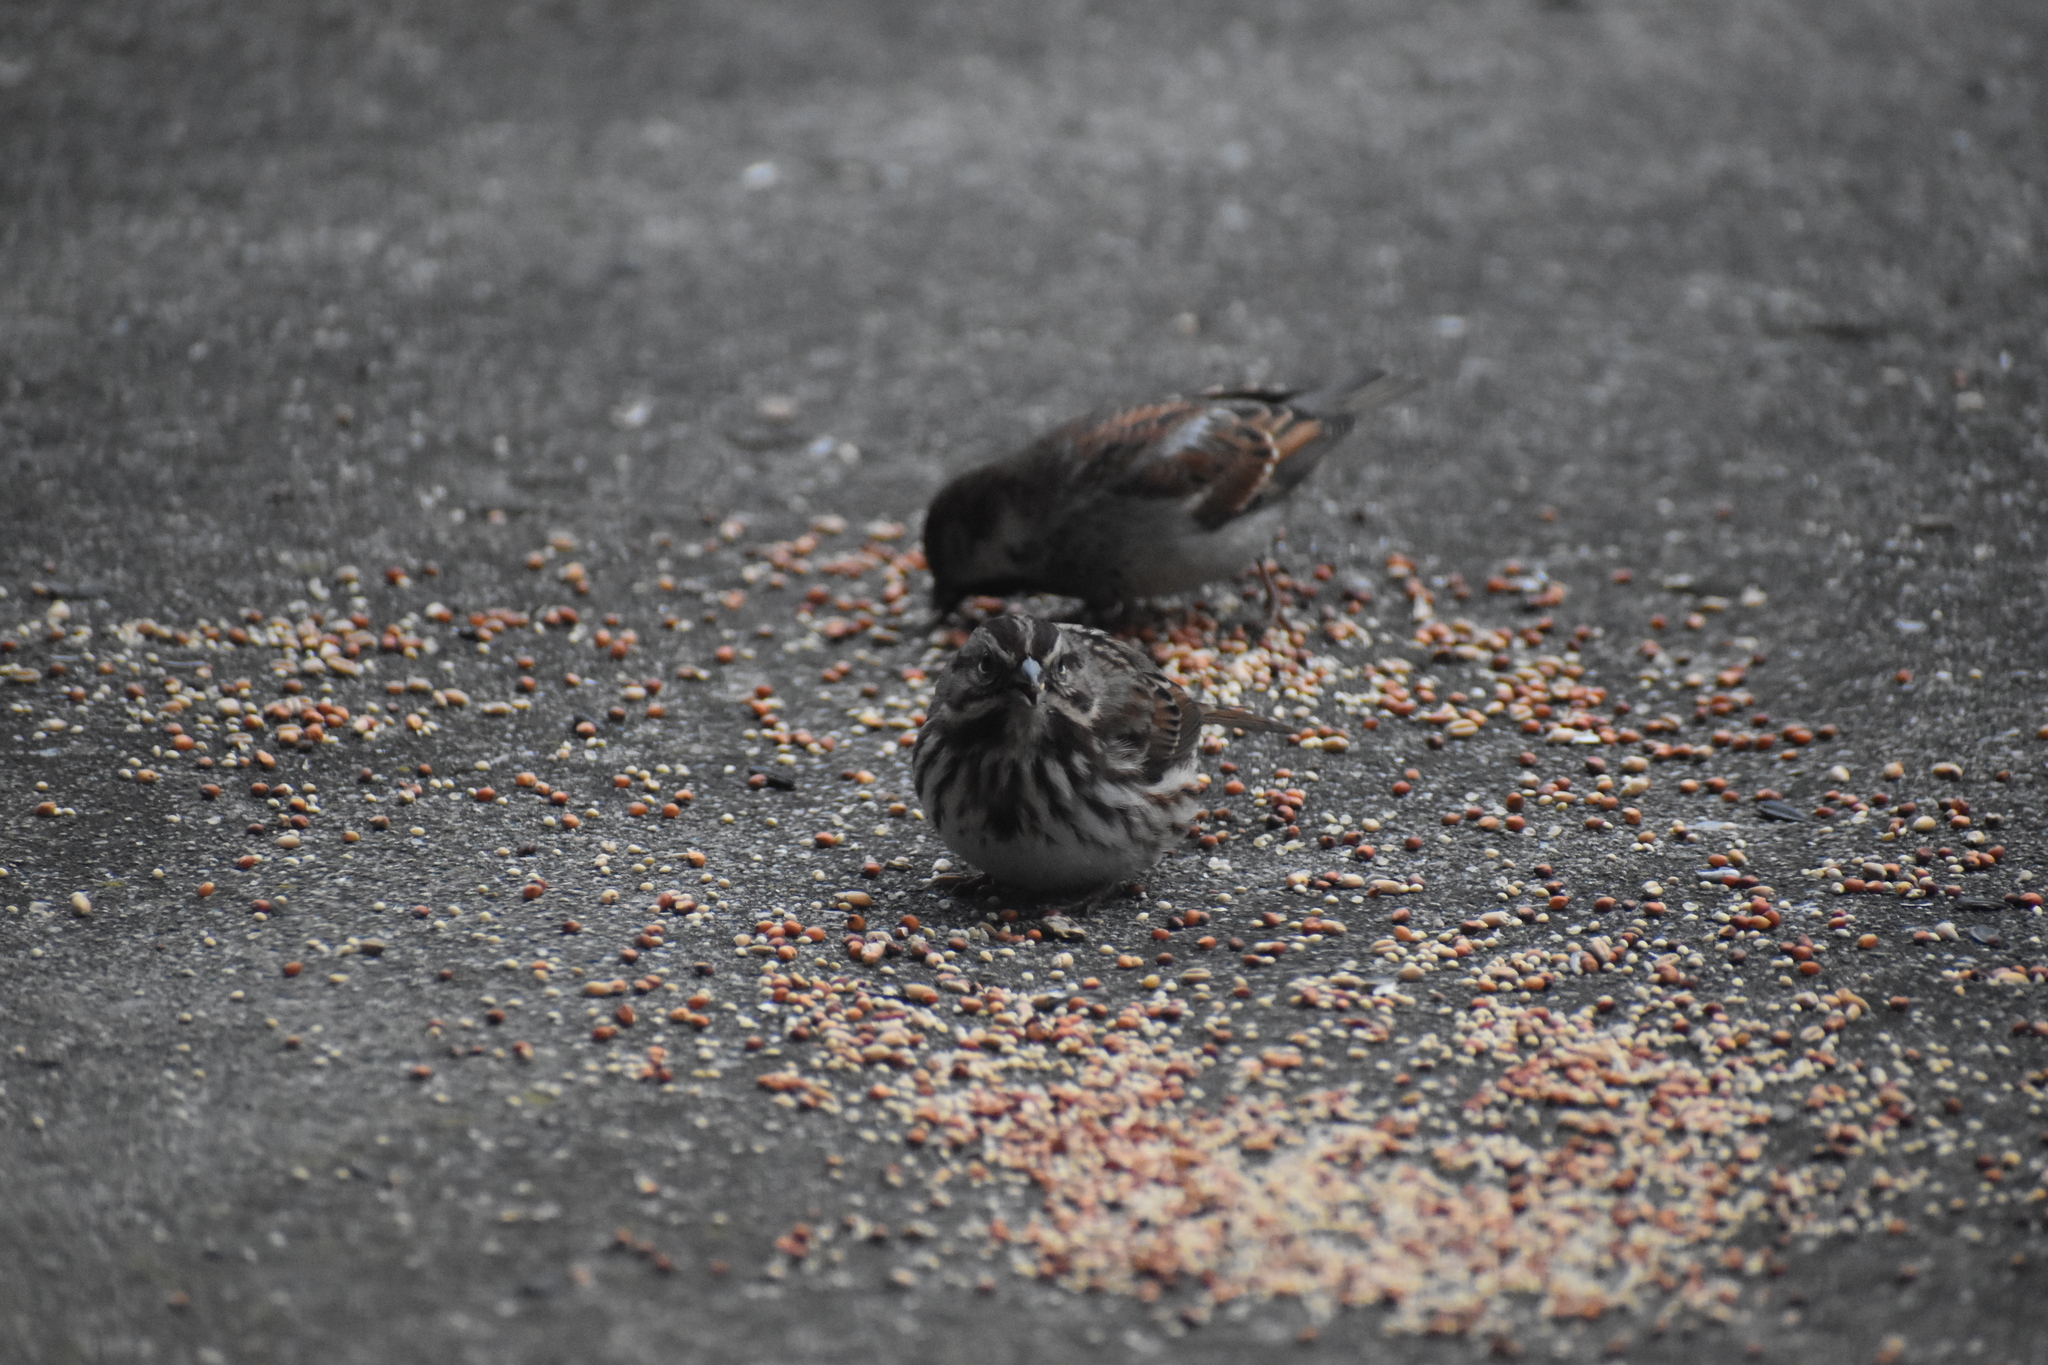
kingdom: Animalia
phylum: Chordata
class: Aves
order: Passeriformes
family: Passerellidae
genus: Melospiza
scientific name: Melospiza melodia
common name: Song sparrow
